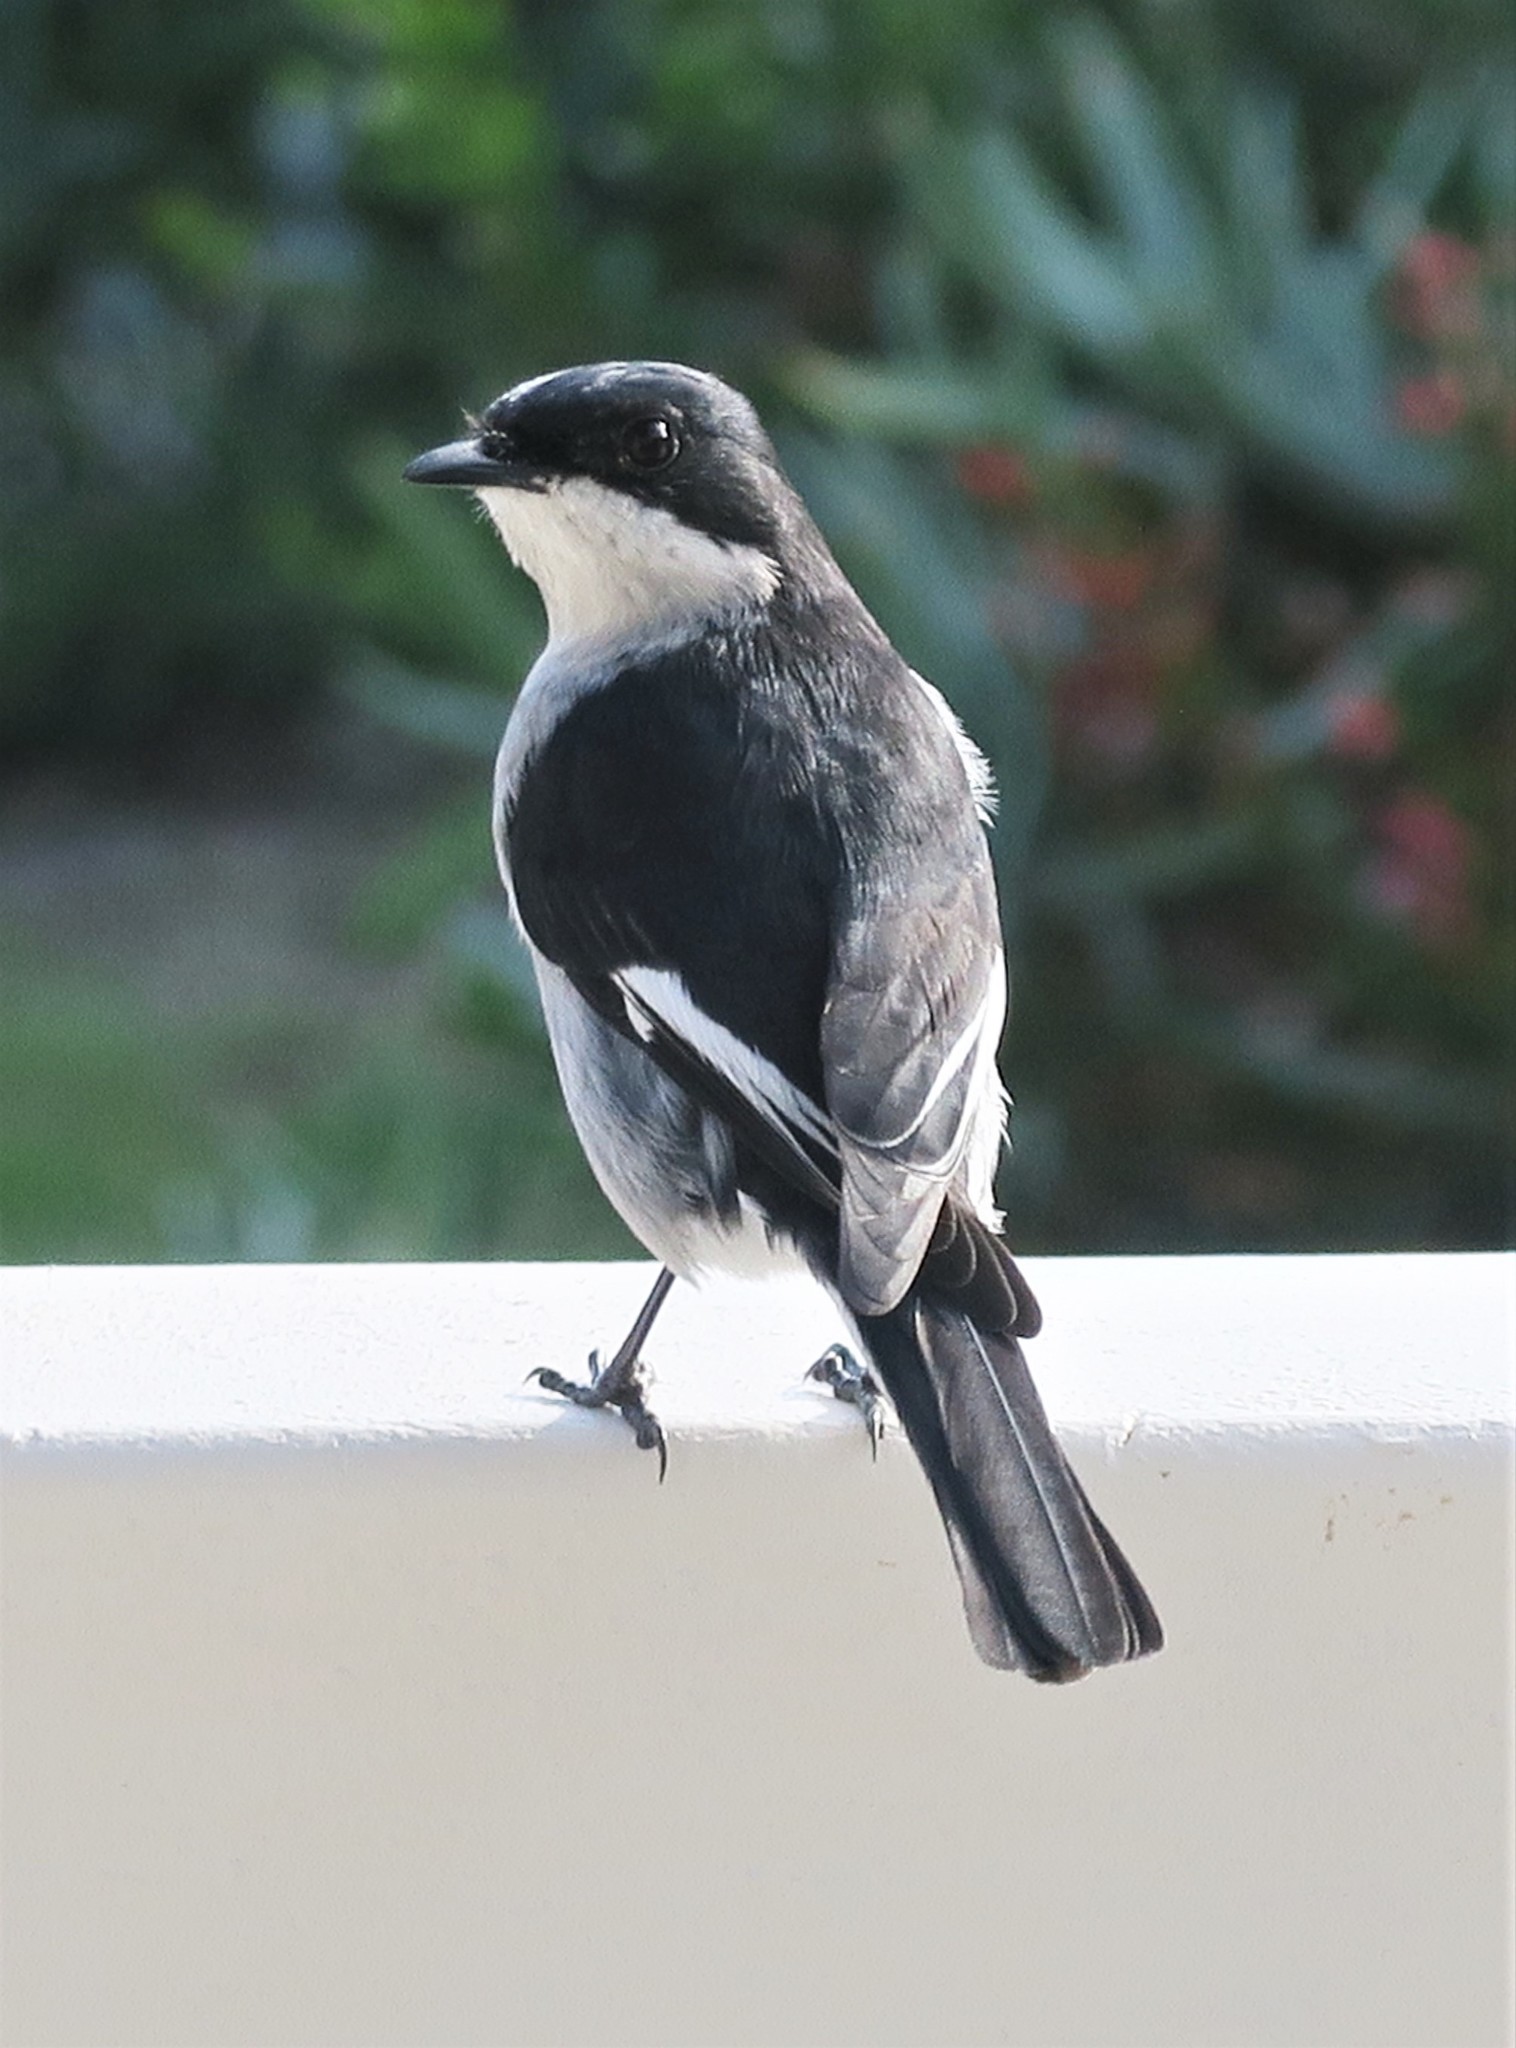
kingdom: Animalia
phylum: Chordata
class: Aves
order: Passeriformes
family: Muscicapidae
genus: Sigelus
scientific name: Sigelus silens
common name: Fiscal flycatcher
